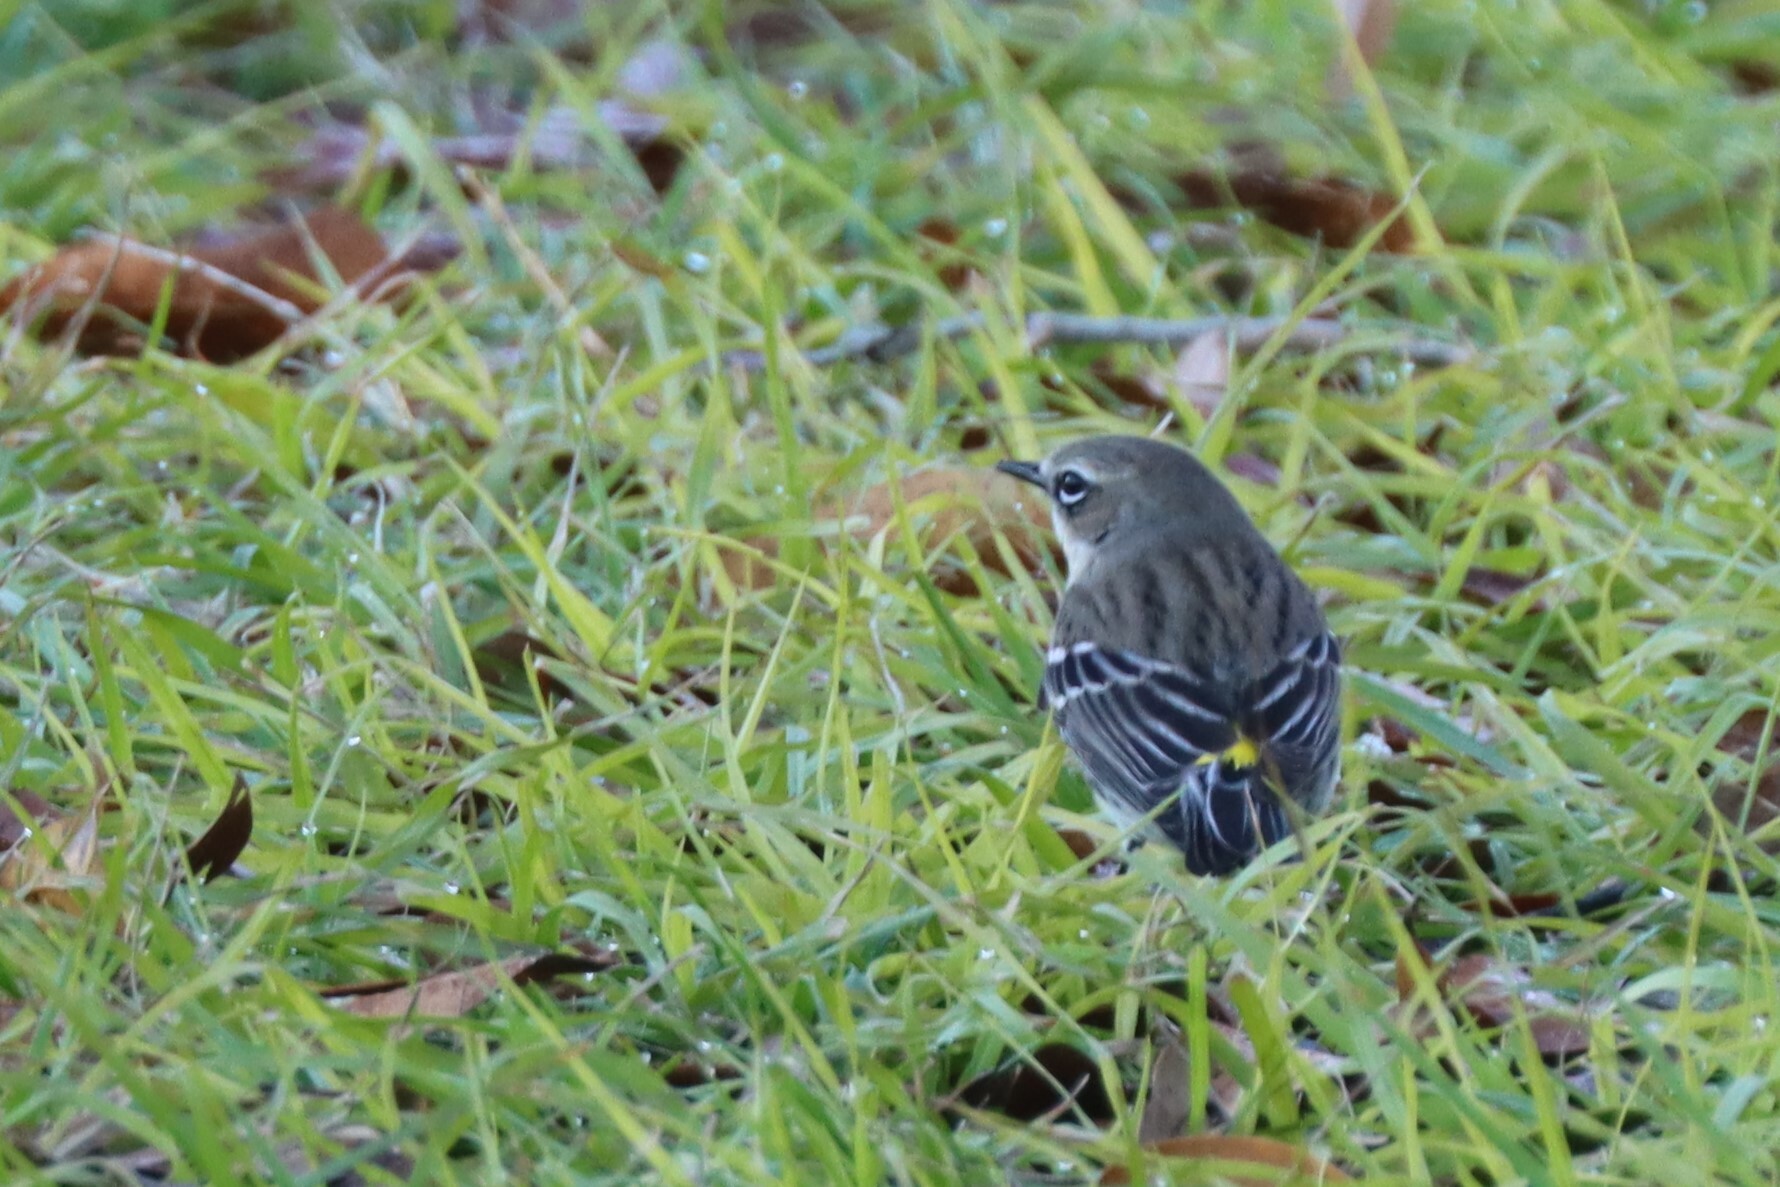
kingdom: Animalia
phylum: Chordata
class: Aves
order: Passeriformes
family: Parulidae
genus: Setophaga
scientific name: Setophaga coronata
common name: Myrtle warbler
